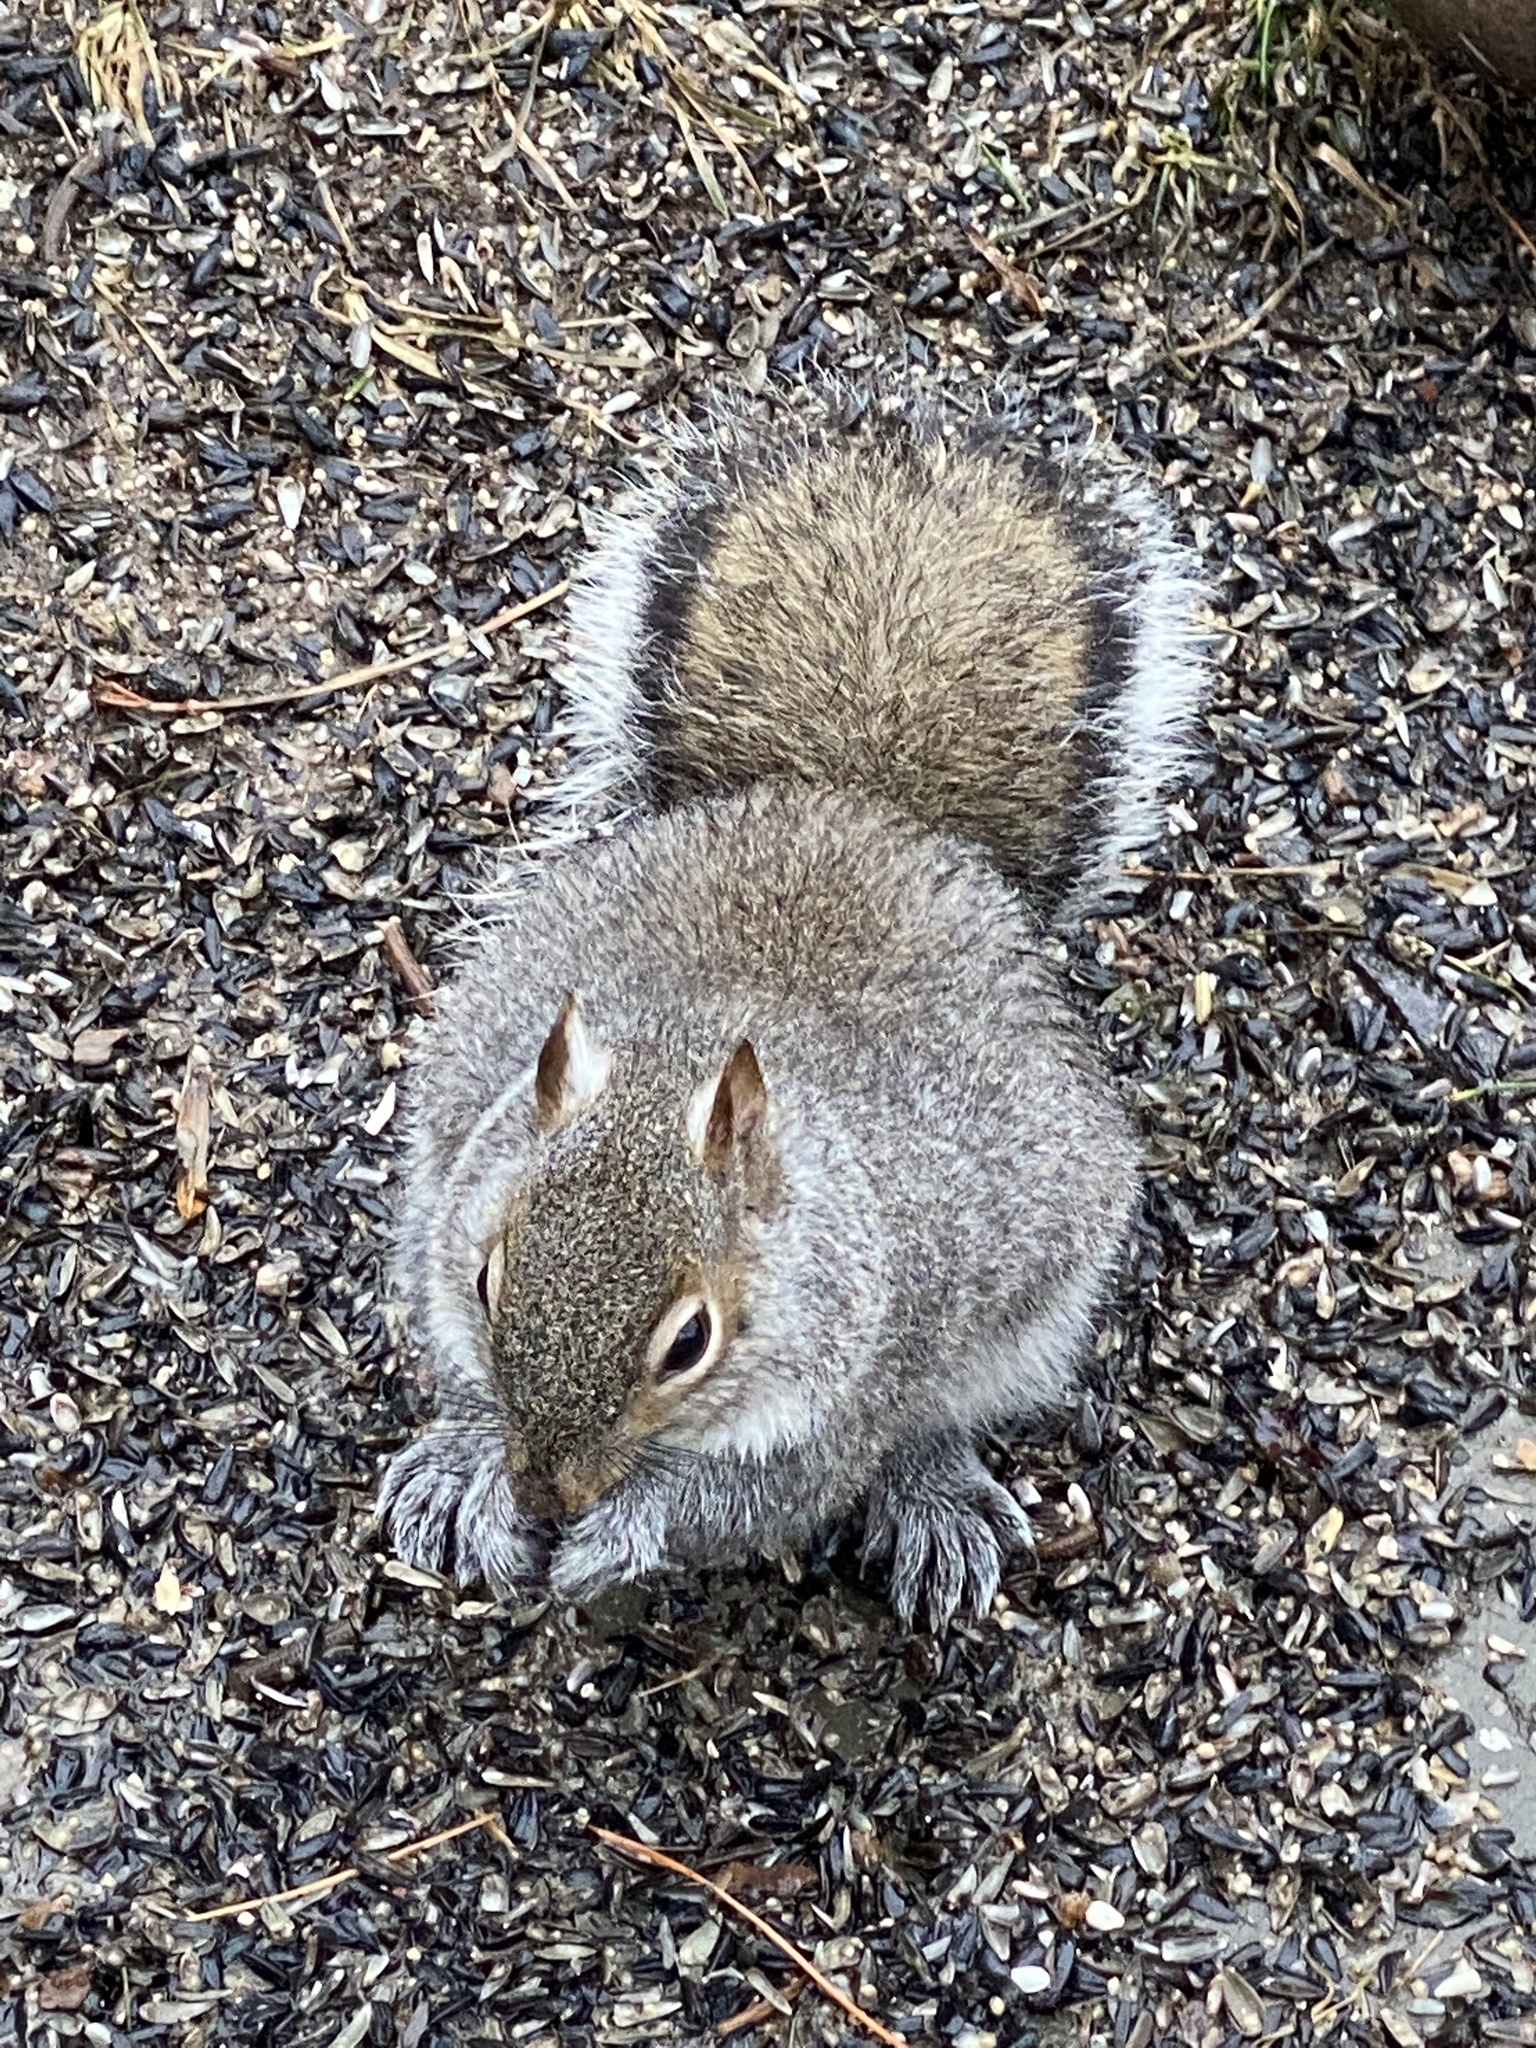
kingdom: Animalia
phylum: Chordata
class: Mammalia
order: Rodentia
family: Sciuridae
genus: Sciurus
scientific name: Sciurus carolinensis
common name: Eastern gray squirrel
